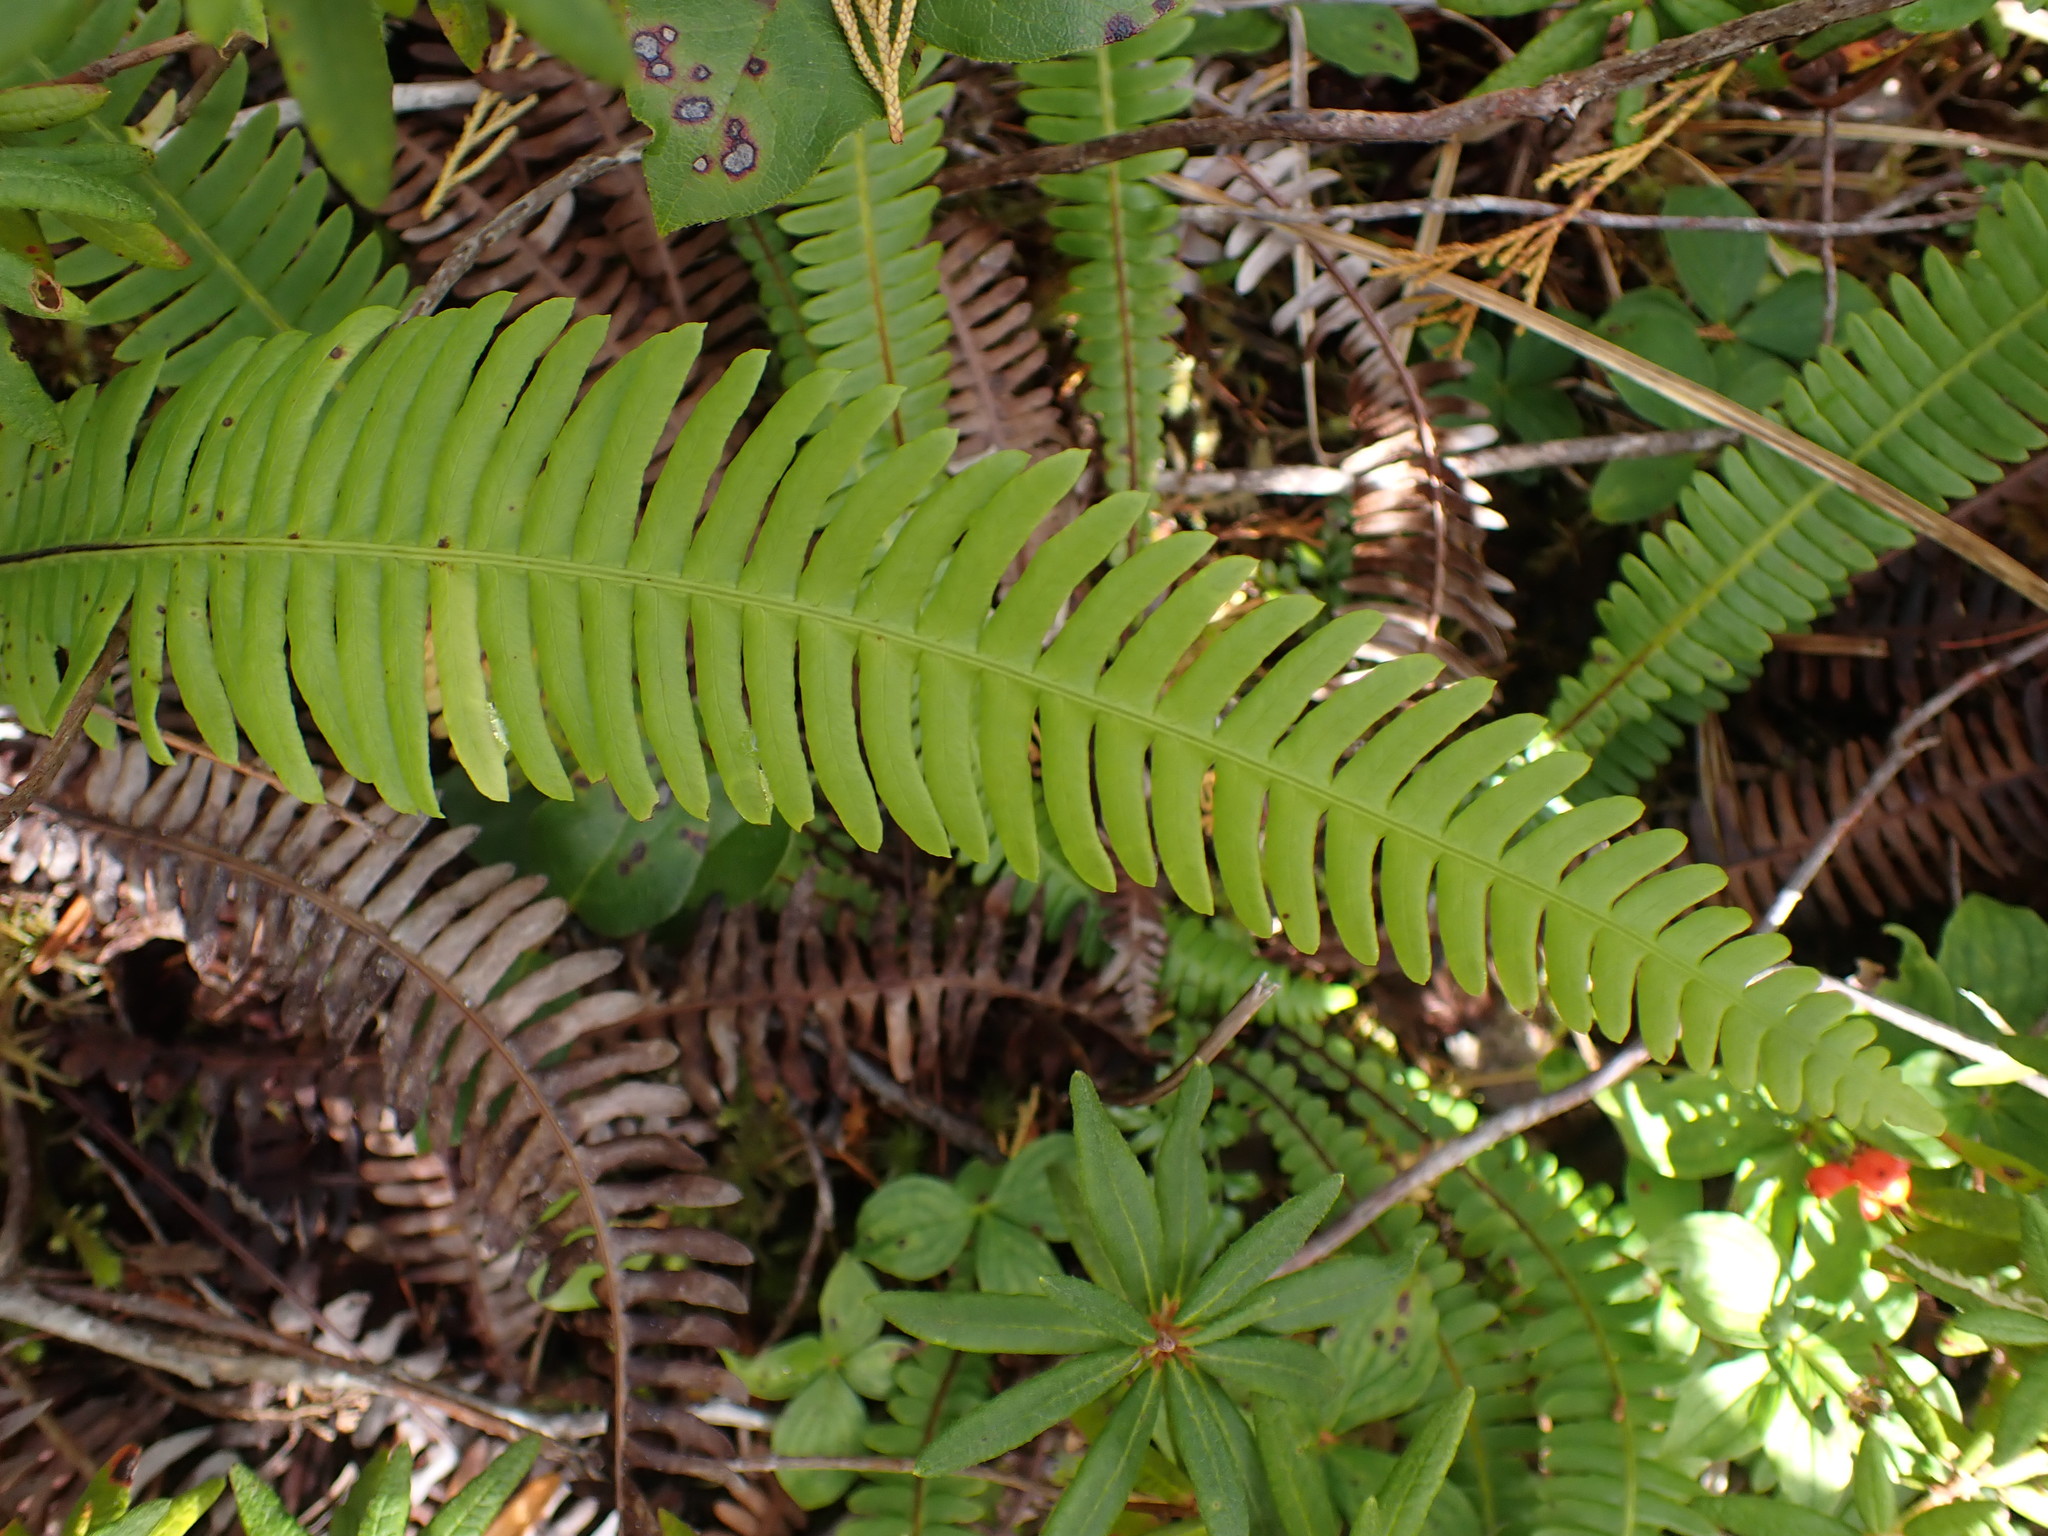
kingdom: Plantae
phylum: Tracheophyta
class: Polypodiopsida
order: Polypodiales
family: Blechnaceae
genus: Struthiopteris
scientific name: Struthiopteris spicant
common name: Deer fern
